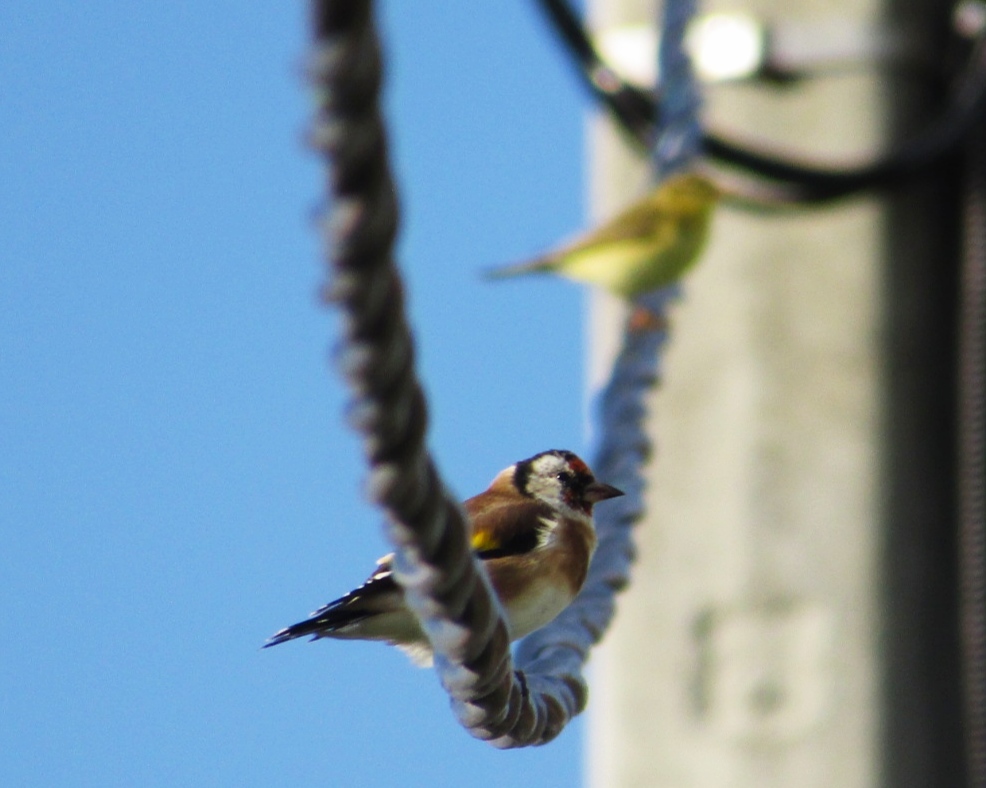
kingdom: Animalia
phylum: Chordata
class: Aves
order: Passeriformes
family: Fringillidae
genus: Carduelis
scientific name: Carduelis carduelis
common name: European goldfinch
